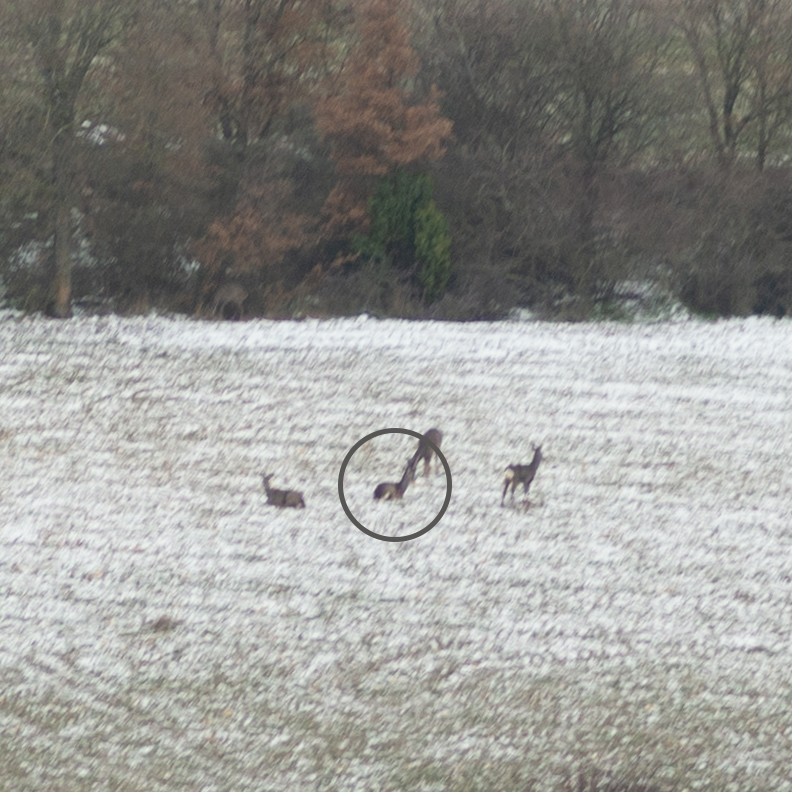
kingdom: Animalia
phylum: Chordata
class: Mammalia
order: Artiodactyla
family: Cervidae
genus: Capreolus
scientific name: Capreolus capreolus
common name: Western roe deer
